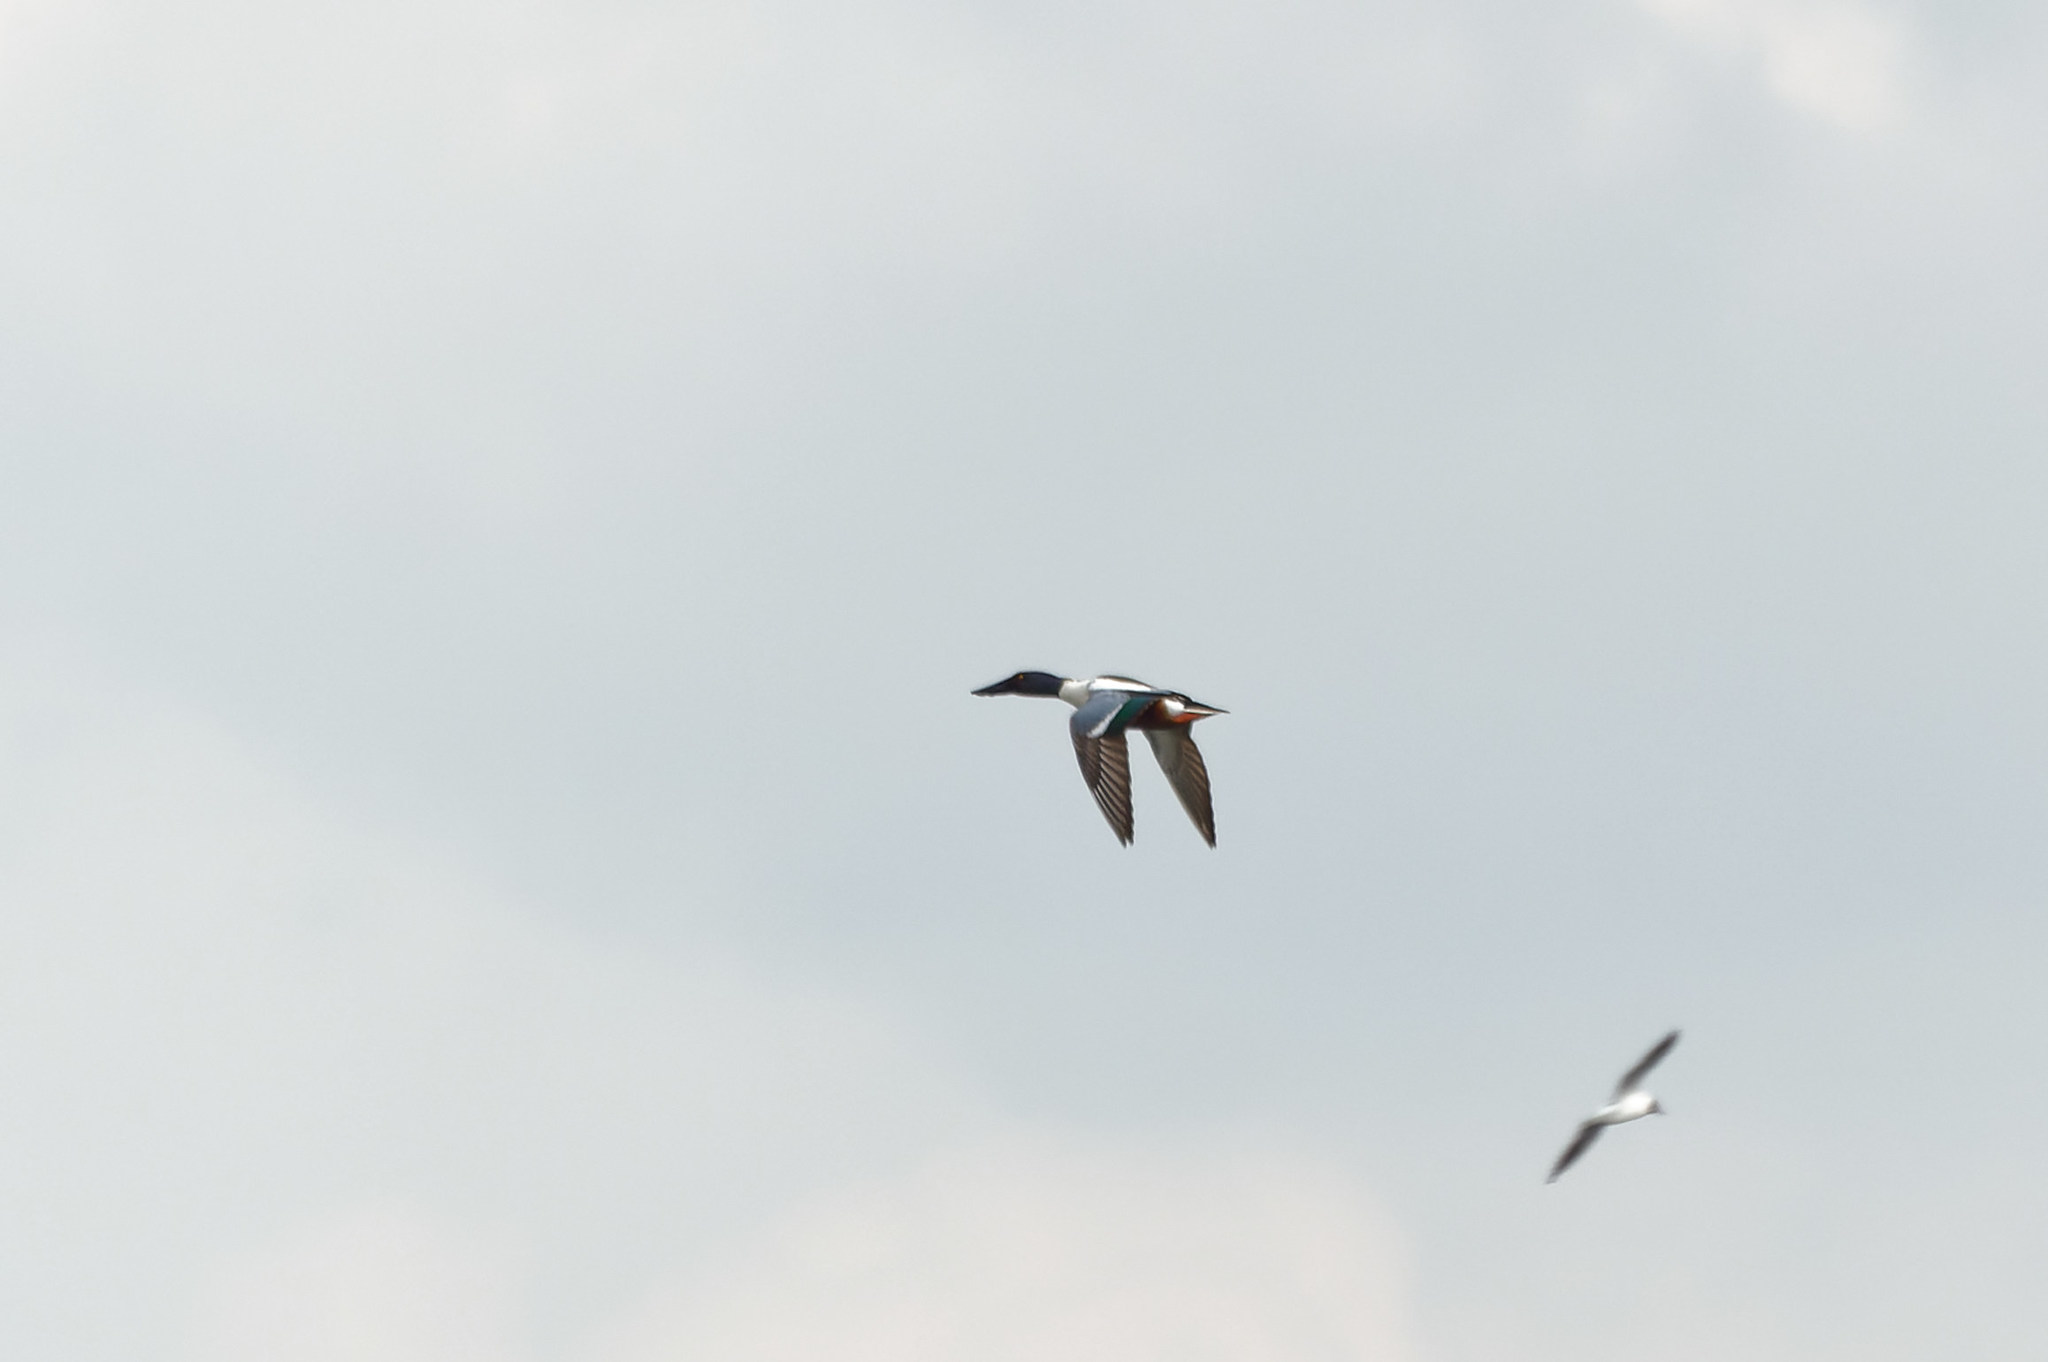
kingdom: Animalia
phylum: Chordata
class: Aves
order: Anseriformes
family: Anatidae
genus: Spatula
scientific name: Spatula clypeata
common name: Northern shoveler
